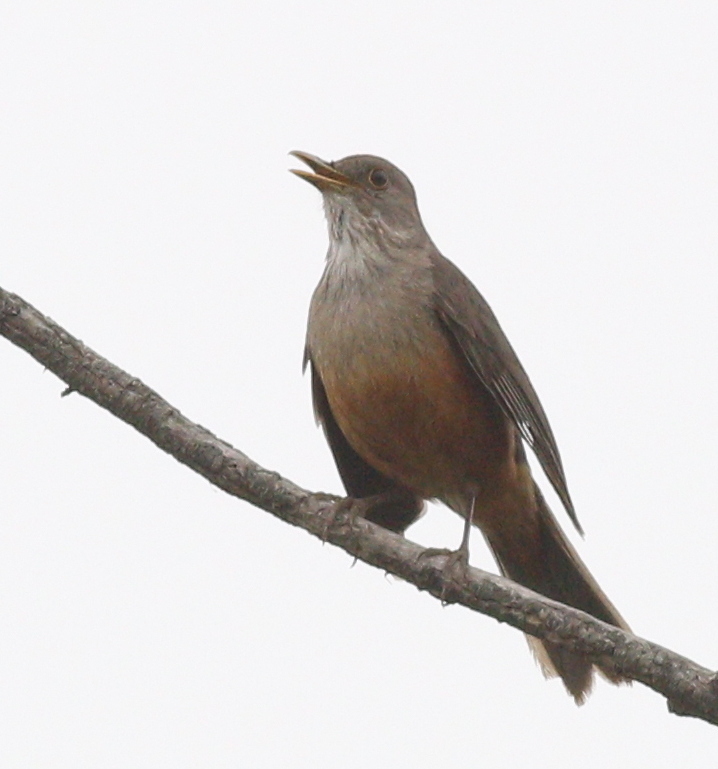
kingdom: Animalia
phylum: Chordata
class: Aves
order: Passeriformes
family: Turdidae
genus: Turdus
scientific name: Turdus rufiventris
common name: Rufous-bellied thrush
